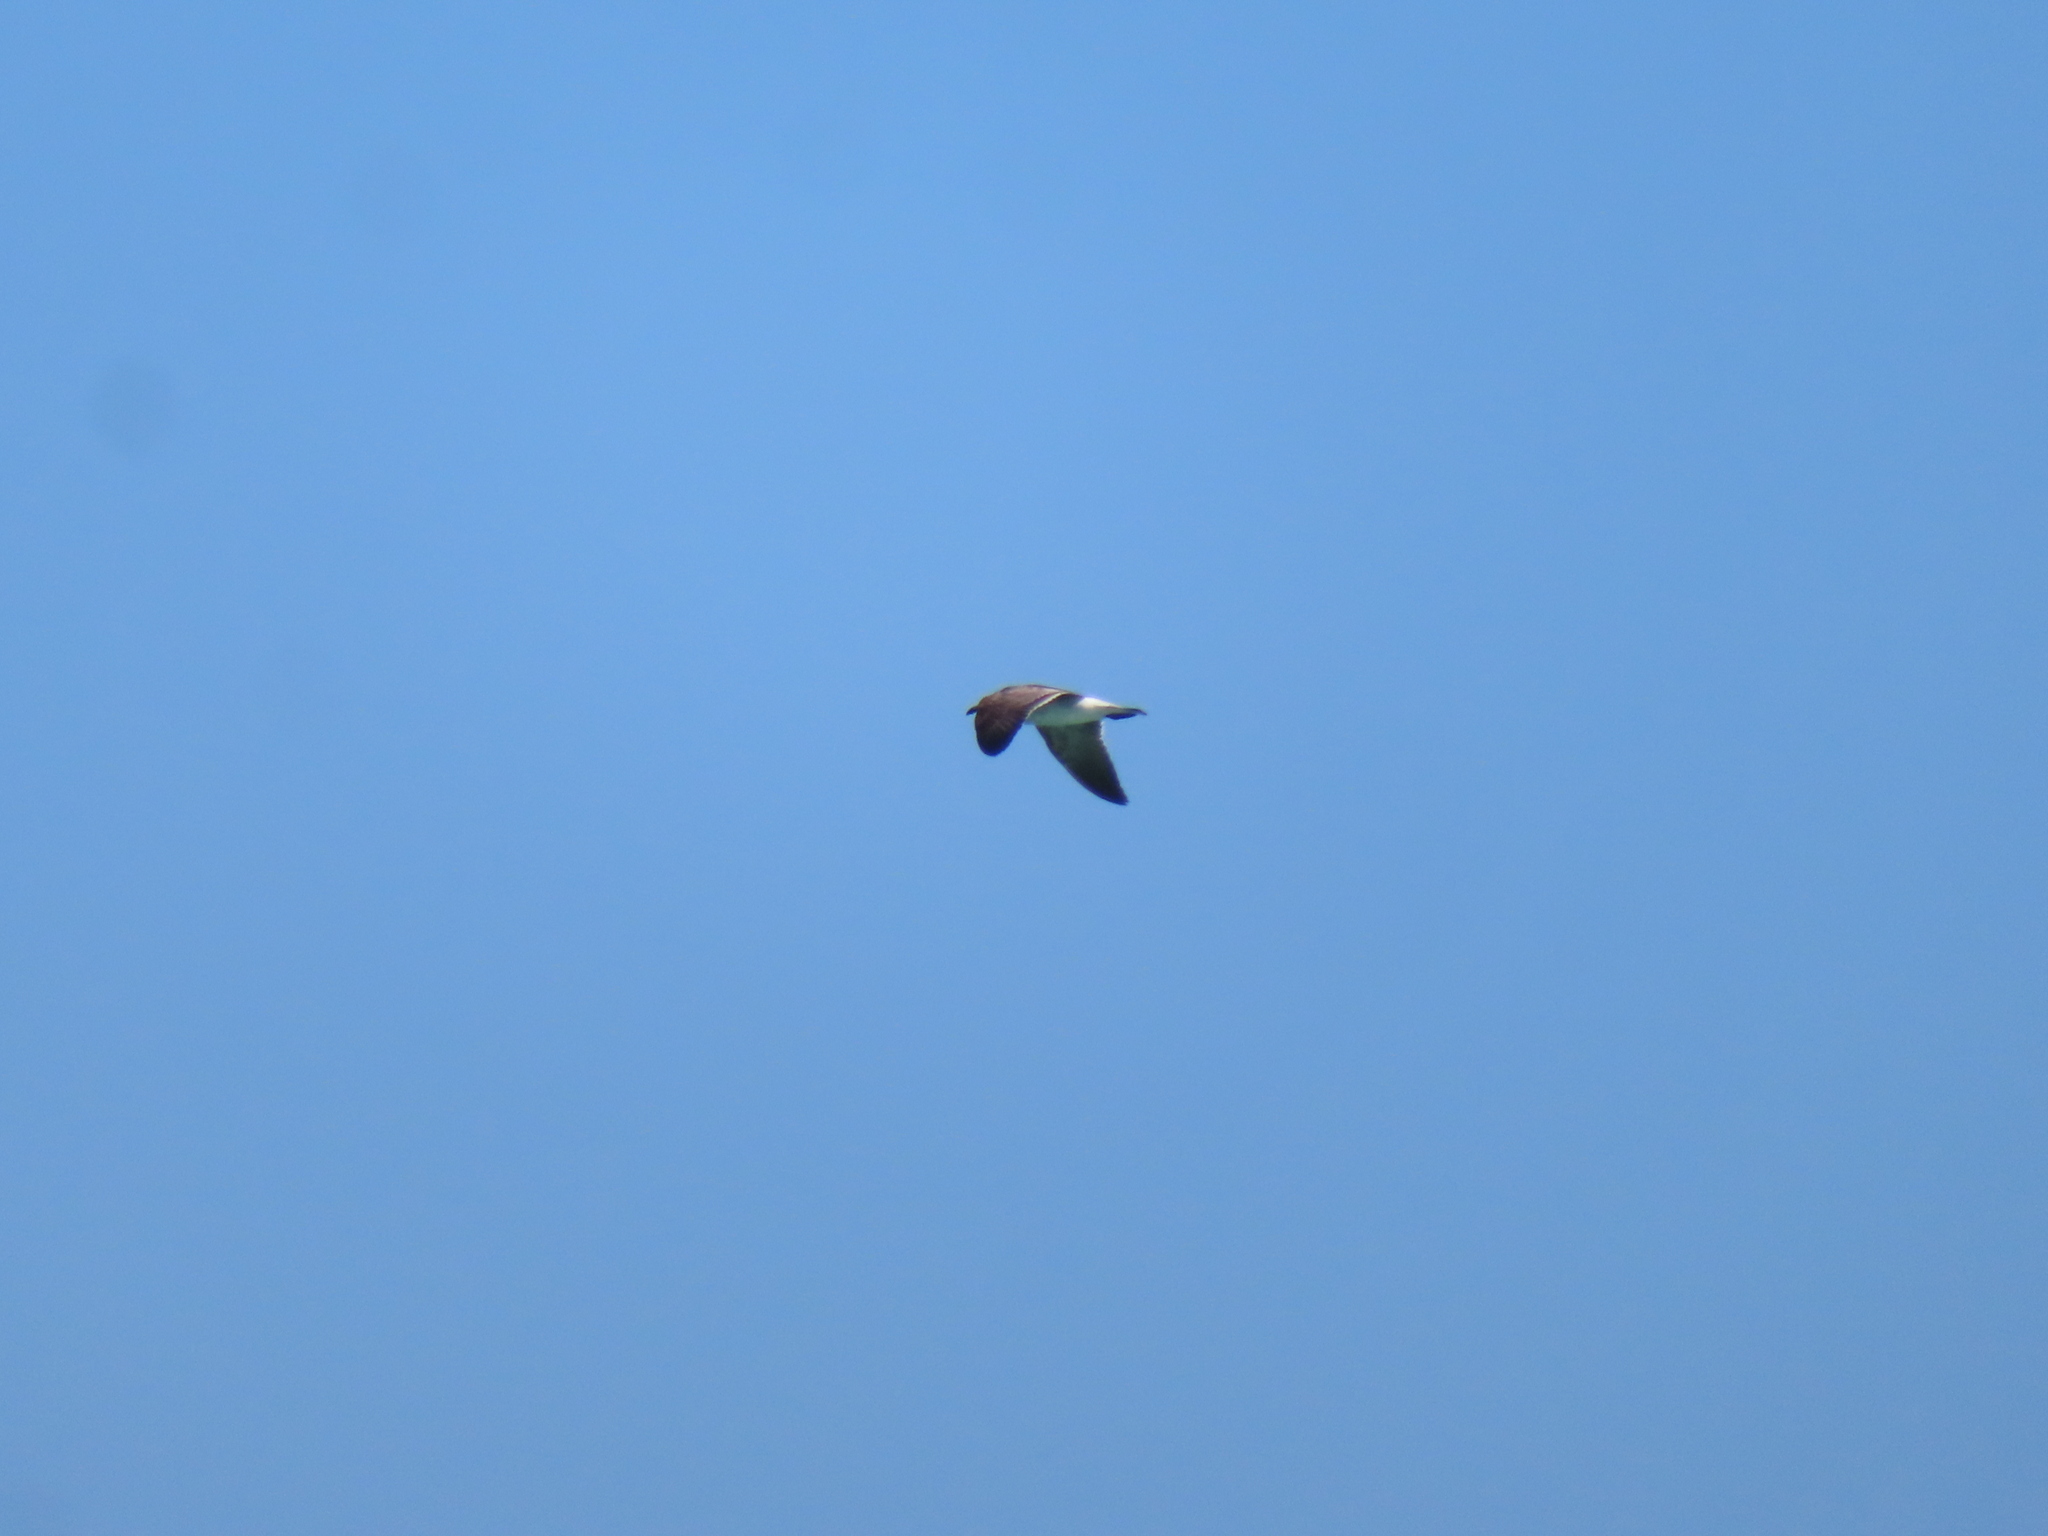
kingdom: Animalia
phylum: Chordata
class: Aves
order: Charadriiformes
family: Laridae
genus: Leucophaeus
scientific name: Leucophaeus atricilla
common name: Laughing gull
